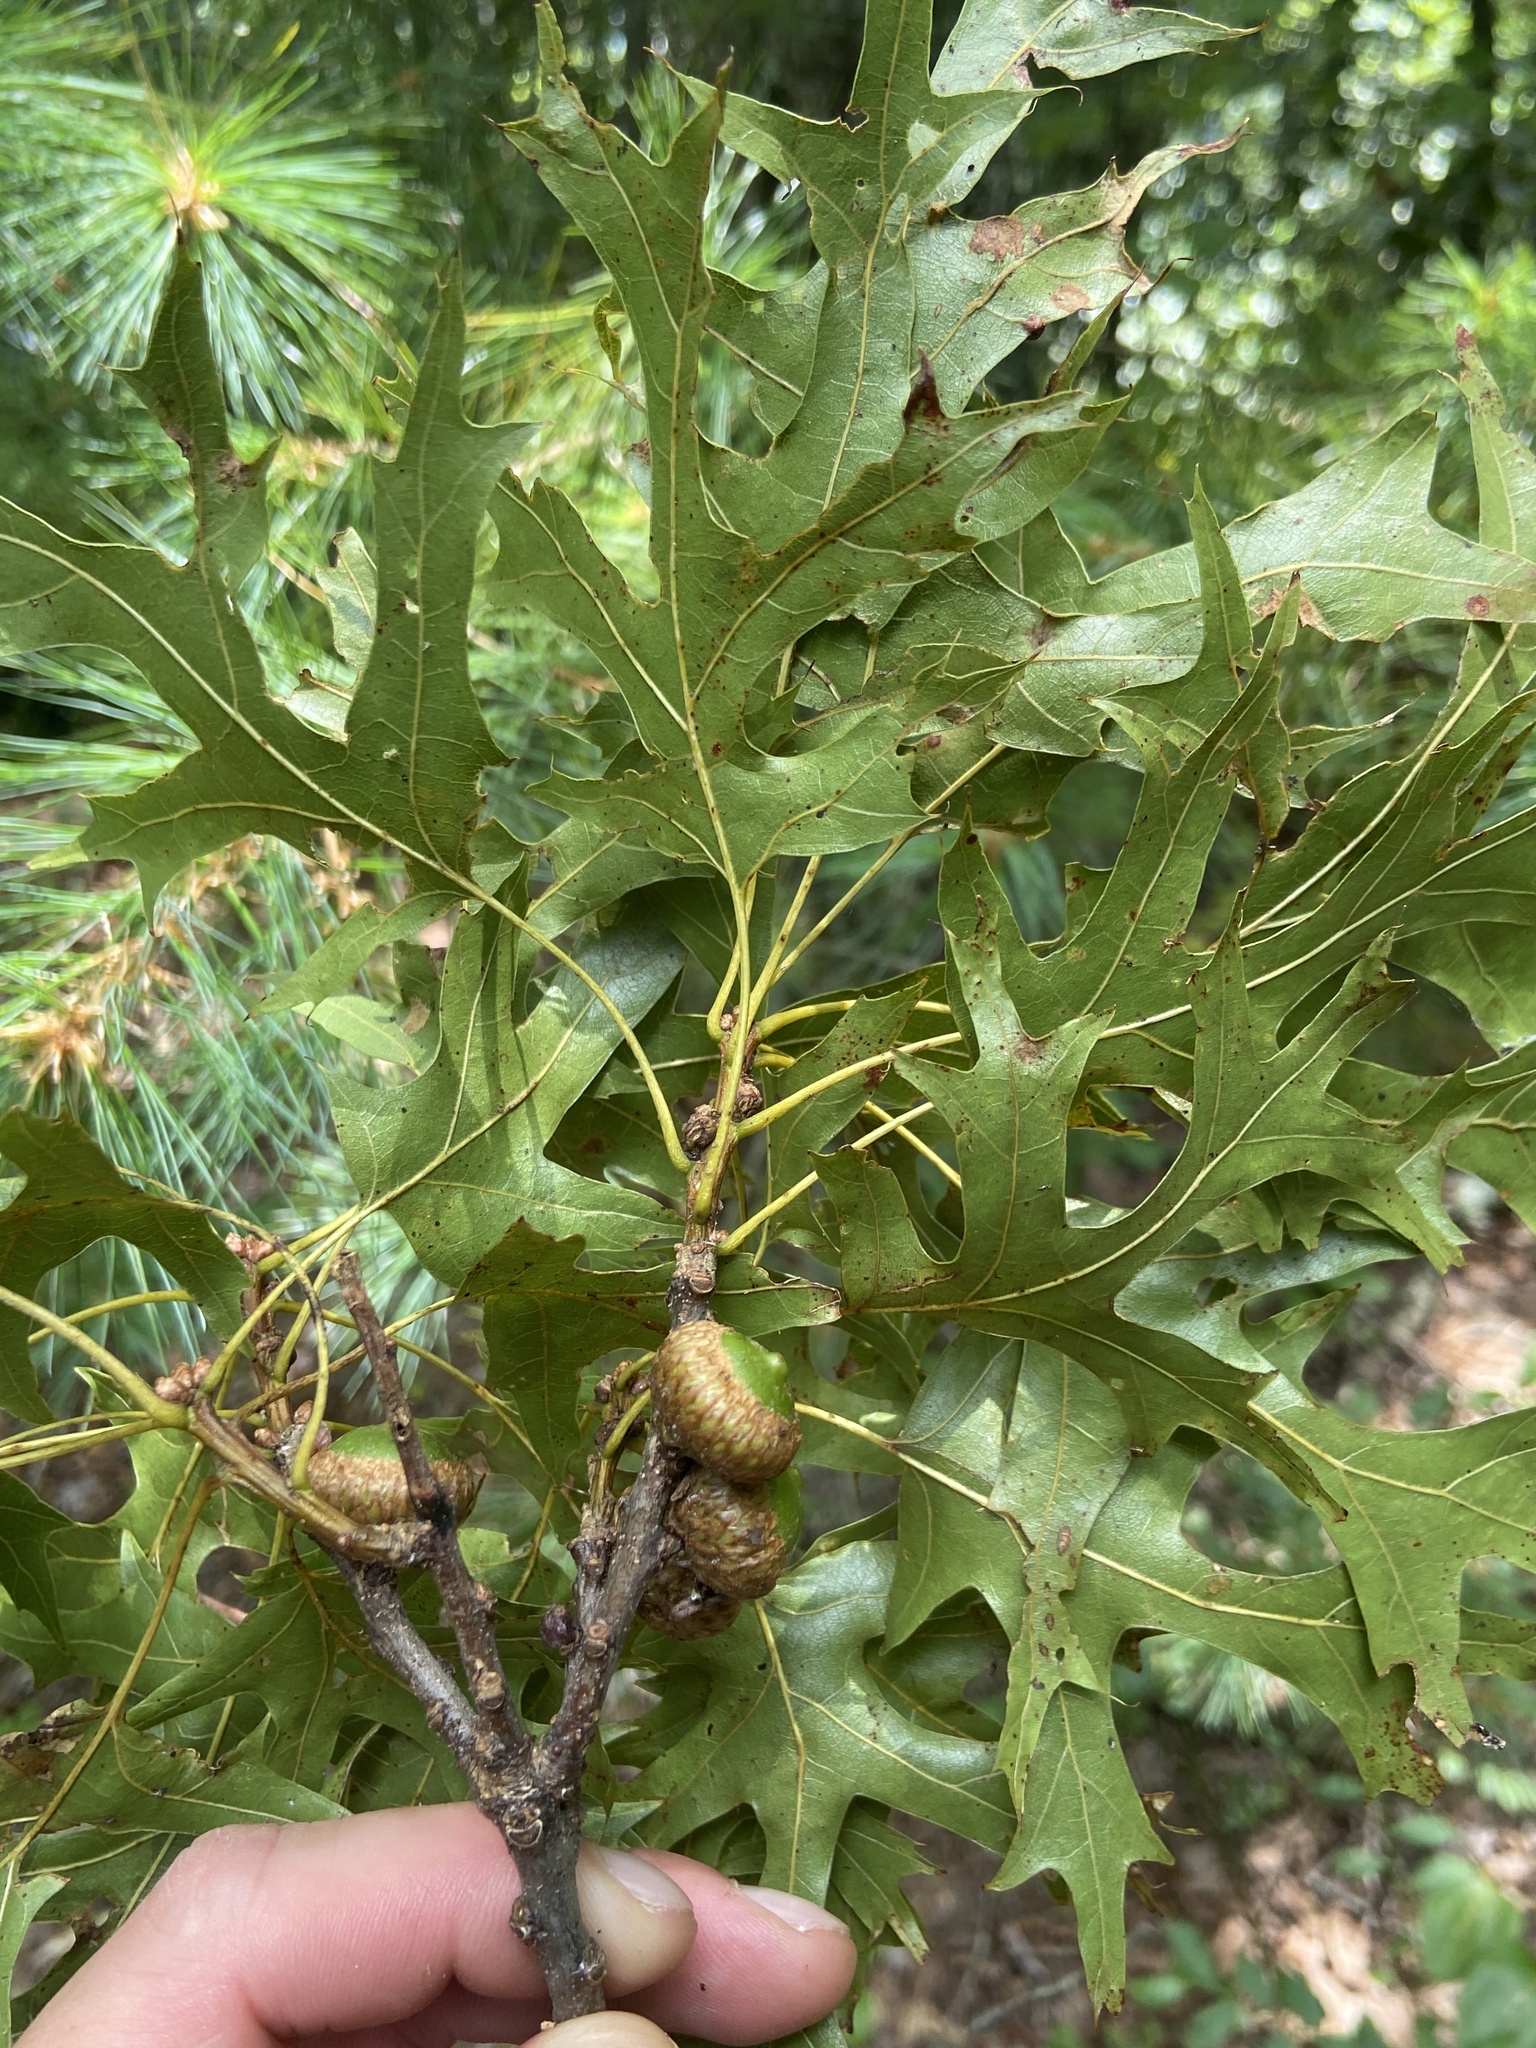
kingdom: Plantae
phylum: Tracheophyta
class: Magnoliopsida
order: Fagales
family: Fagaceae
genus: Quercus
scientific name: Quercus coccinea
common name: Scarlet oak
